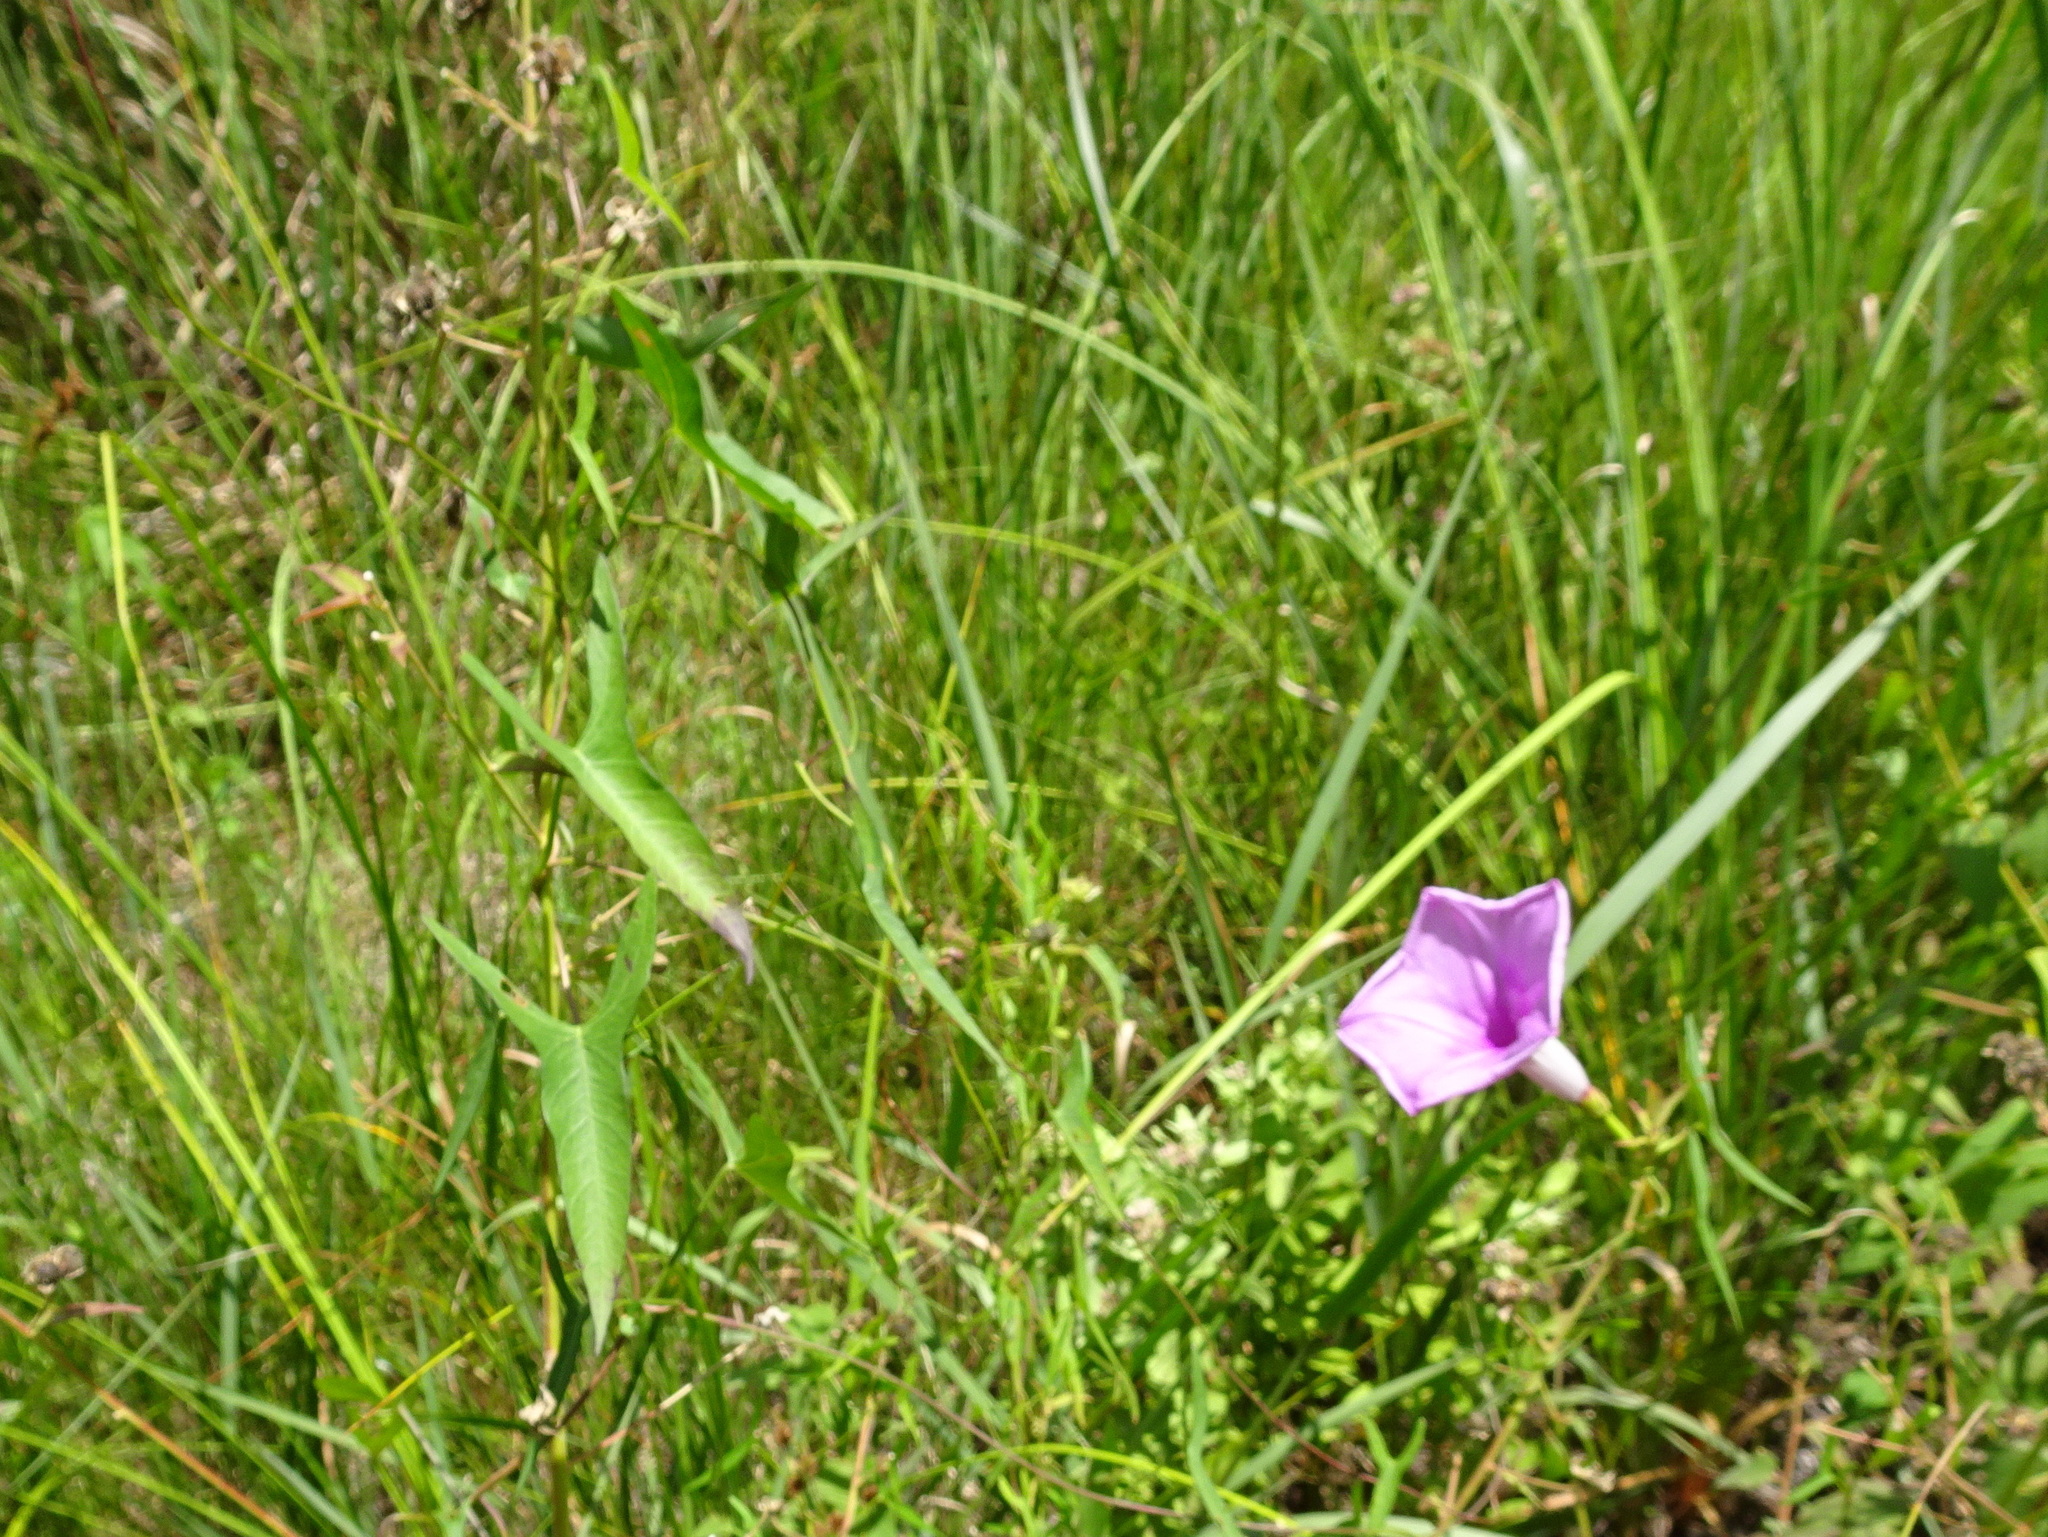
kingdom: Plantae
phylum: Tracheophyta
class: Magnoliopsida
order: Solanales
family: Convolvulaceae
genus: Ipomoea
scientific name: Ipomoea sagittata
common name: Saltmarsh morning glory
